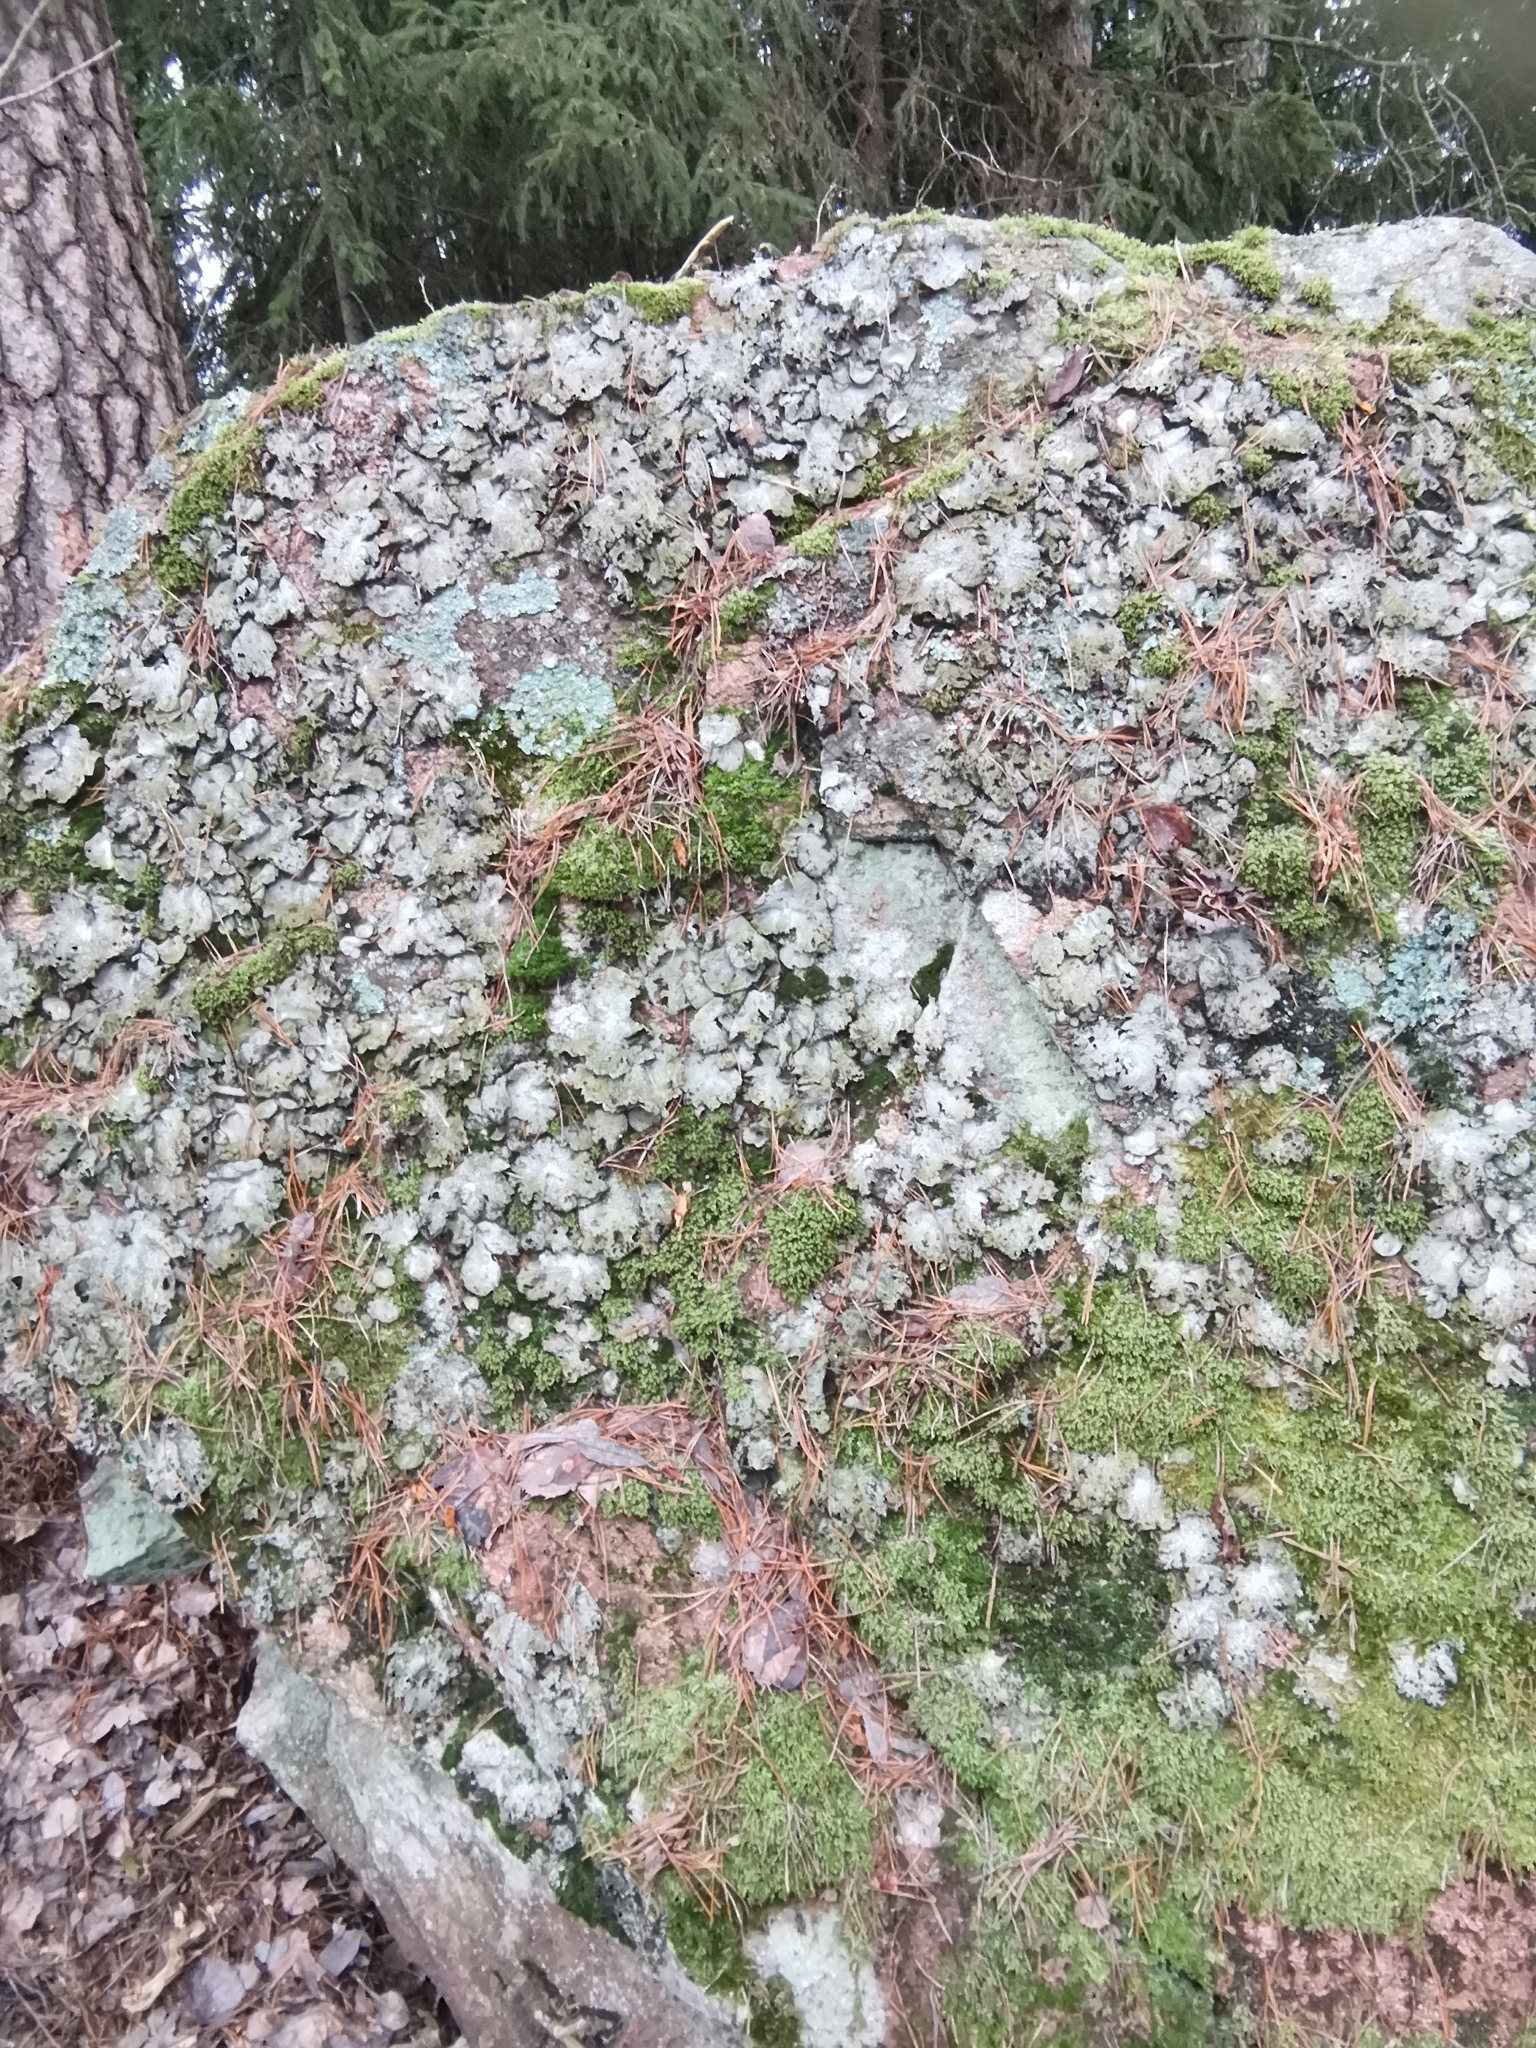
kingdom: Fungi
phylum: Ascomycota
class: Lecanoromycetes
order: Lecanorales
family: Parmeliaceae
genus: Parmelia
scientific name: Parmelia saxatilis
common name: Salted shield lichen
